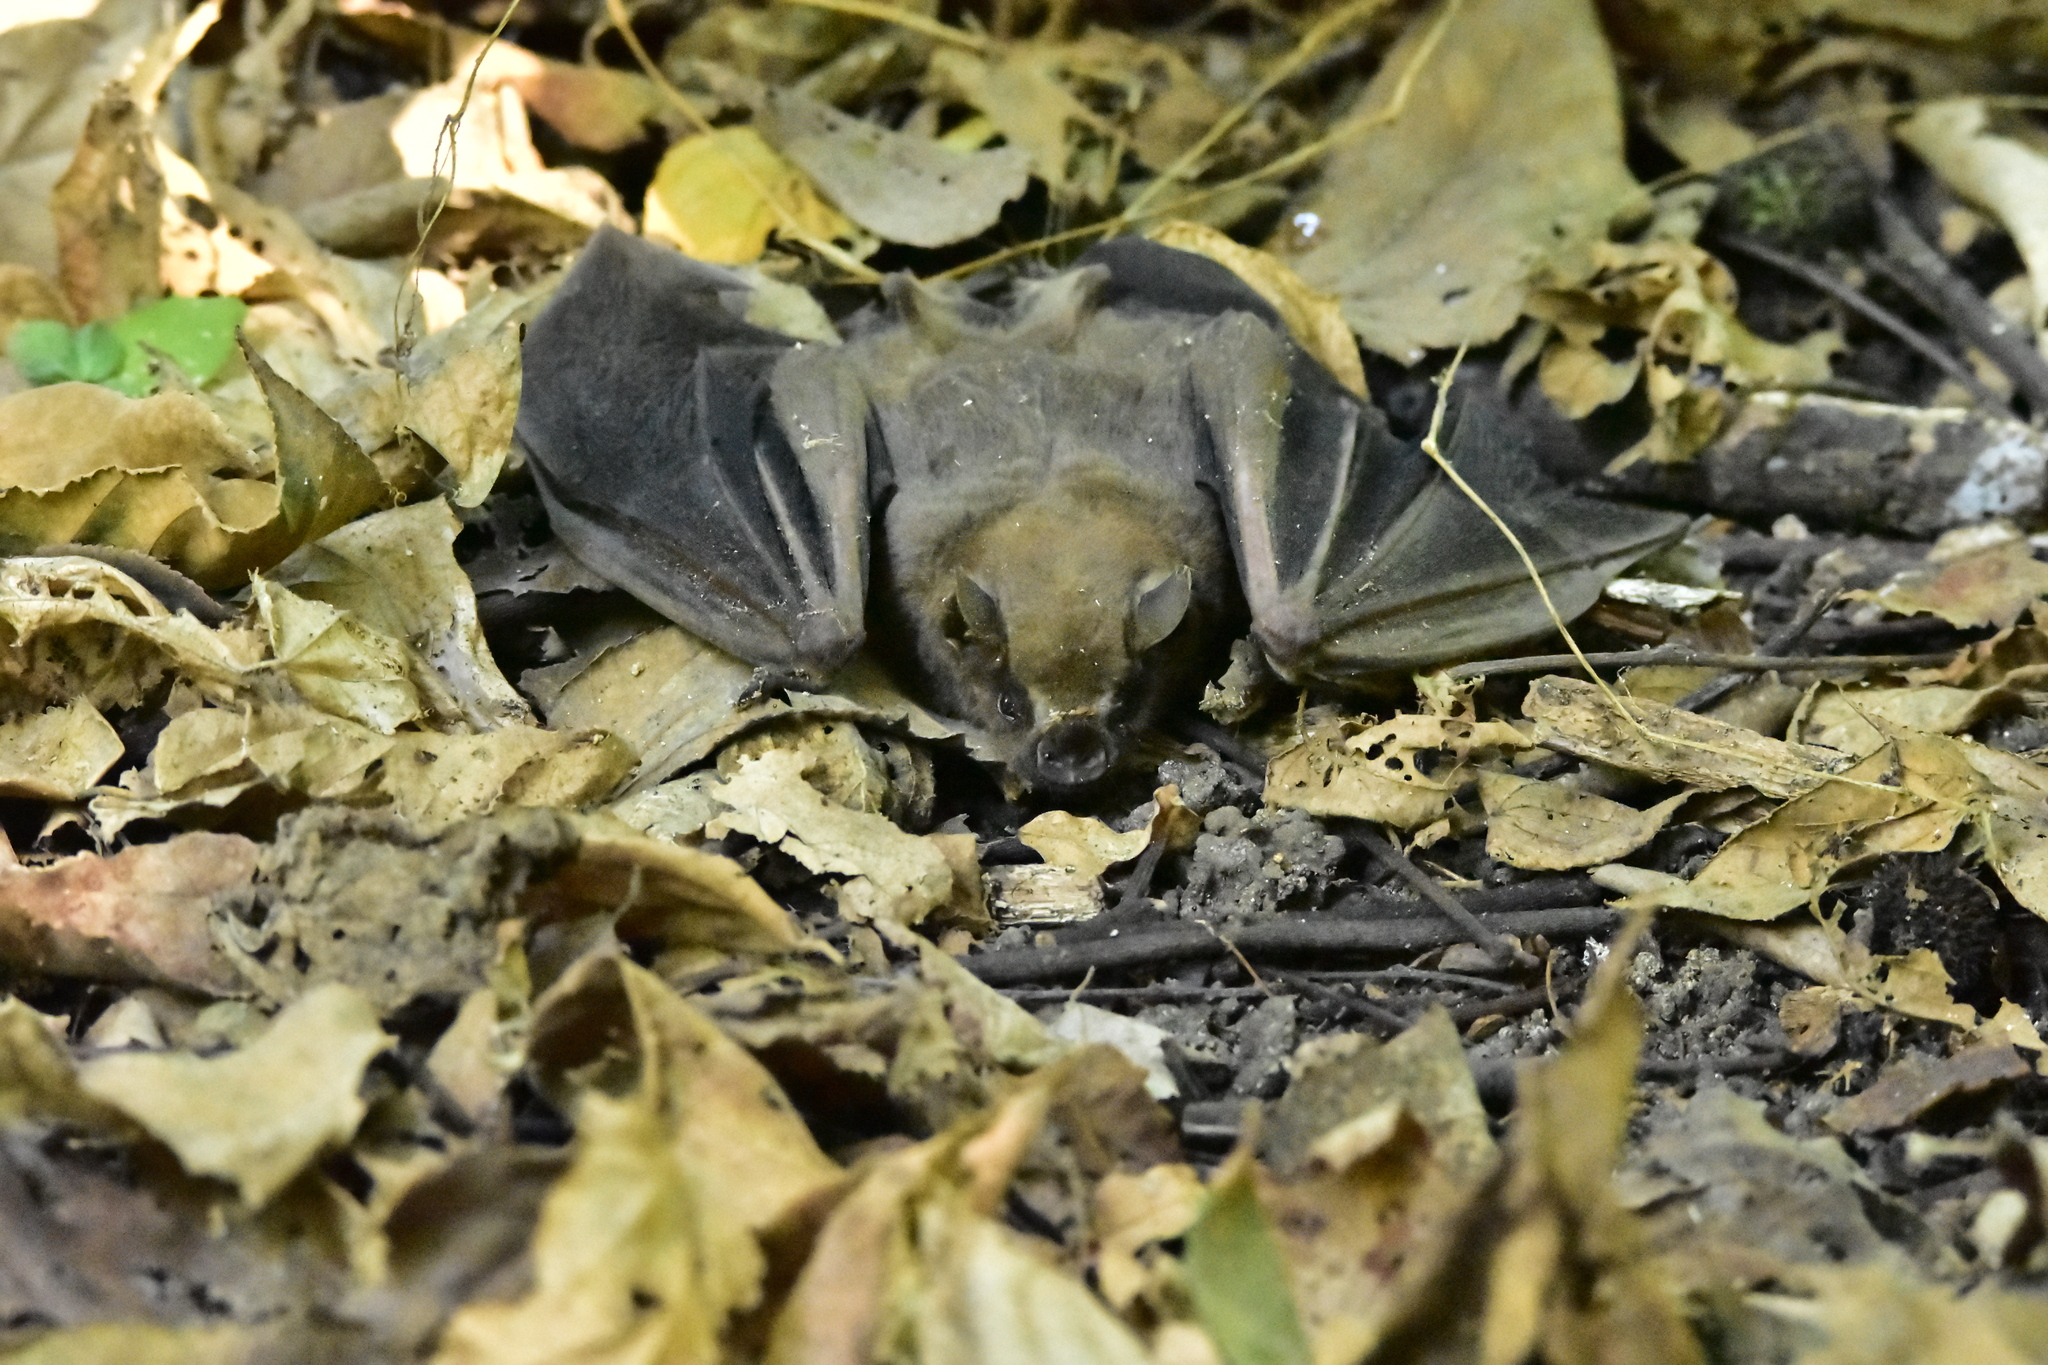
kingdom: Animalia
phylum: Chordata
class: Mammalia
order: Chiroptera
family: Phyllostomidae
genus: Artibeus
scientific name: Artibeus jamaicensis
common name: Jamaican fruit-eating bat
